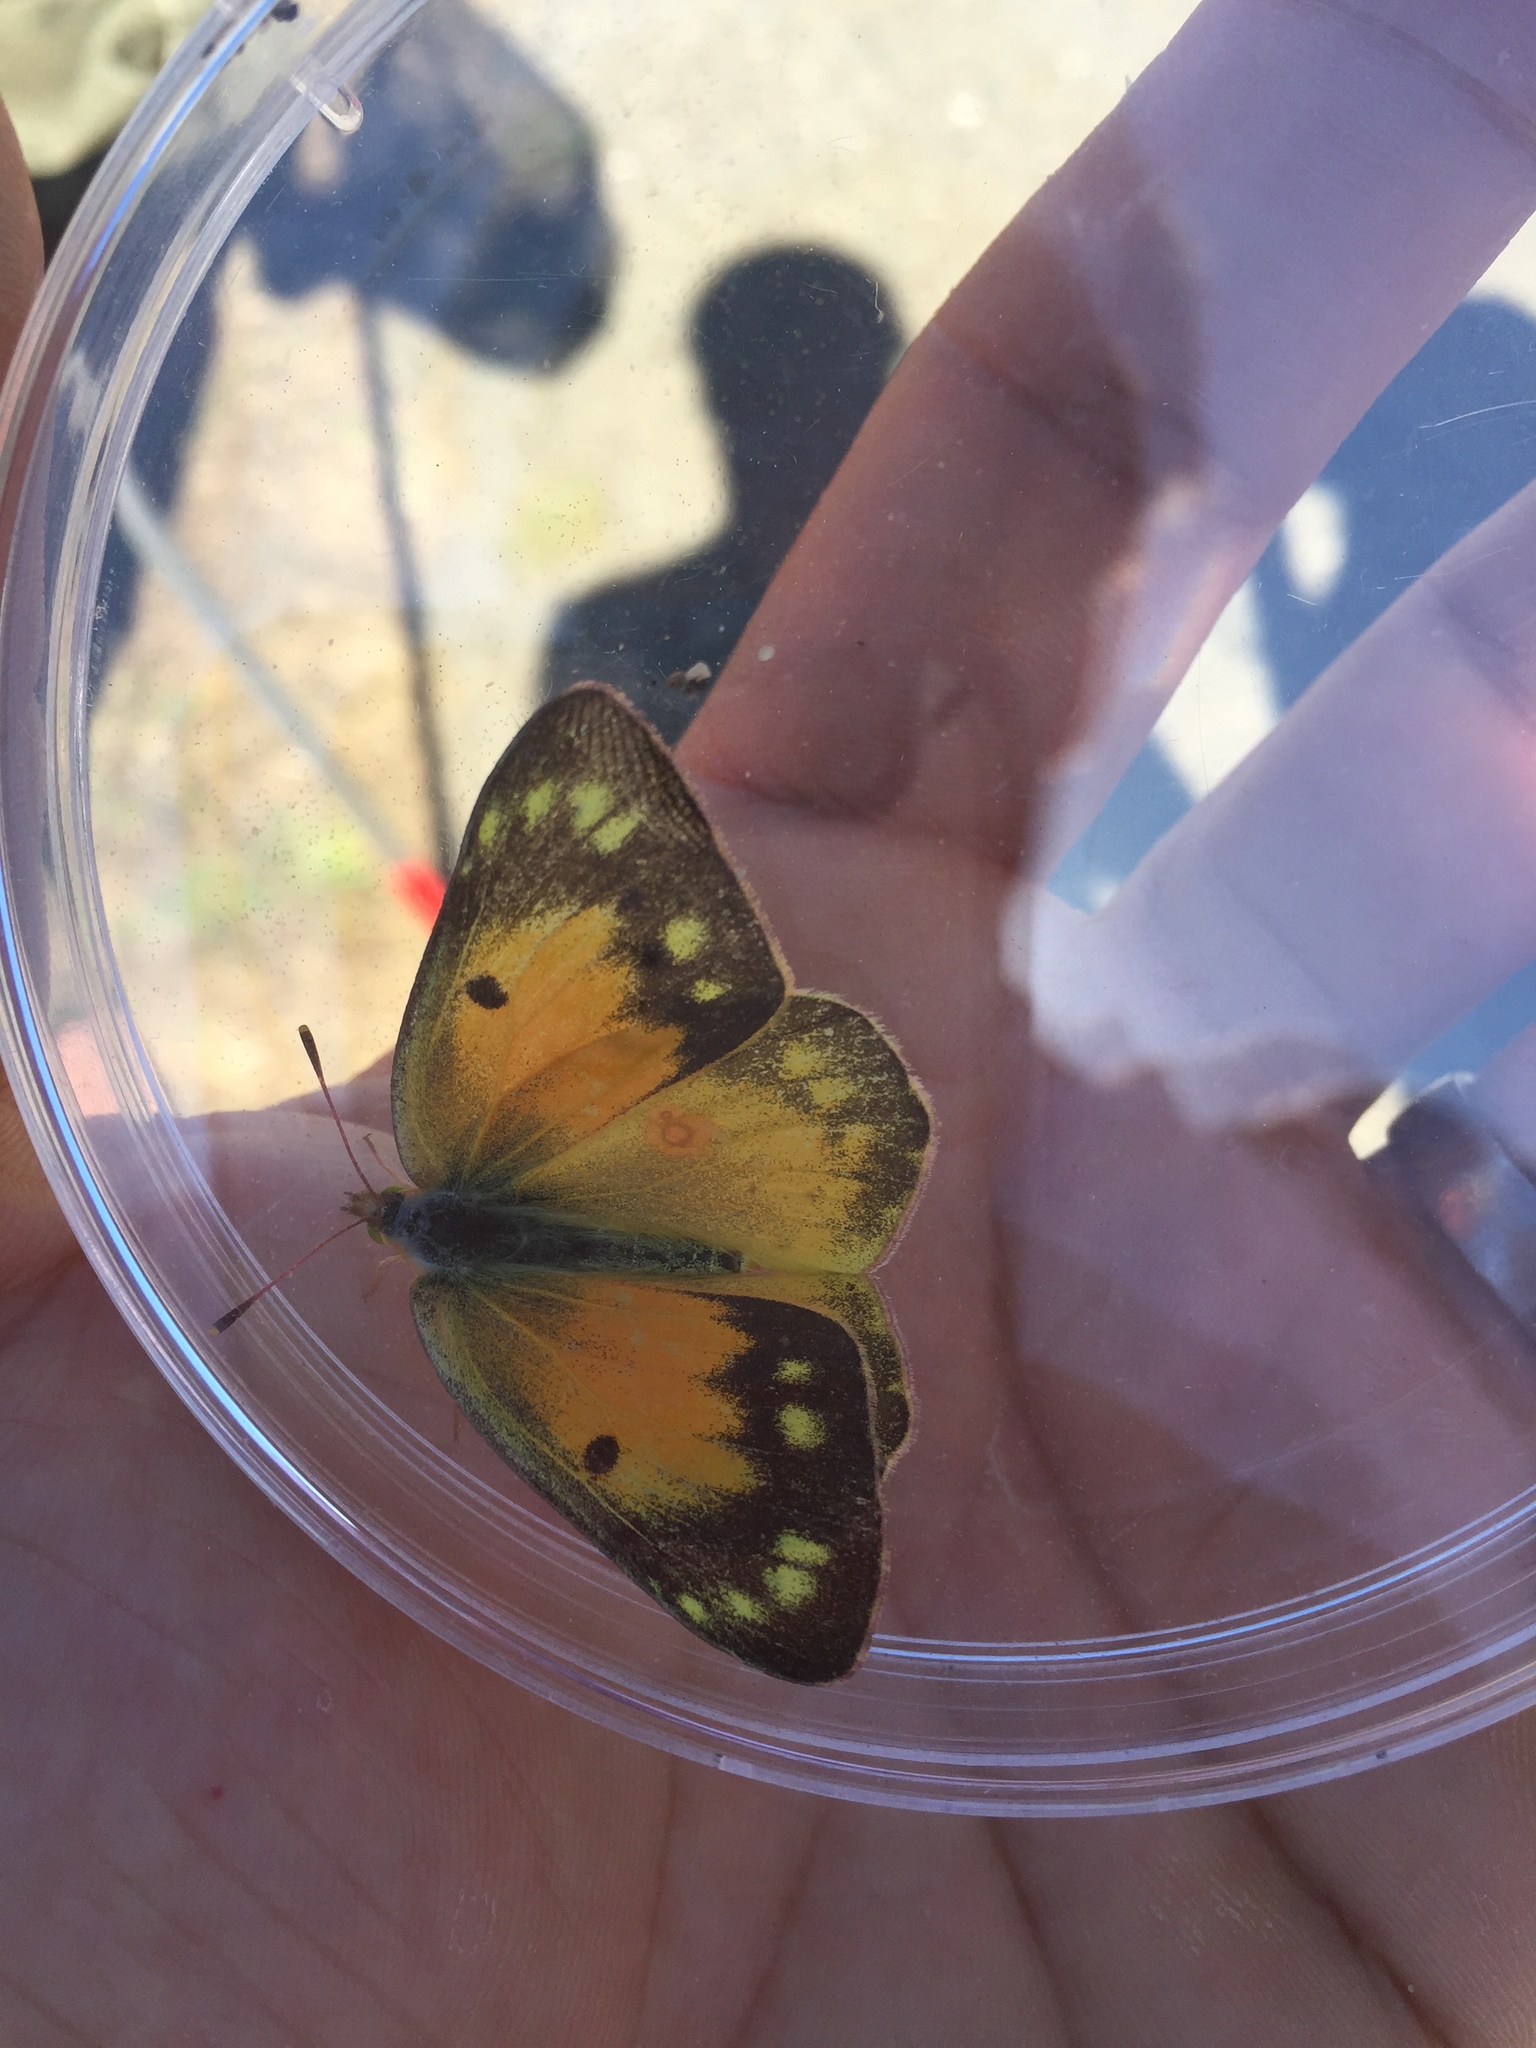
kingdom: Animalia
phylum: Arthropoda
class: Insecta
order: Lepidoptera
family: Pieridae
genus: Colias
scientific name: Colias eurytheme
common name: Alfalfa butterfly
